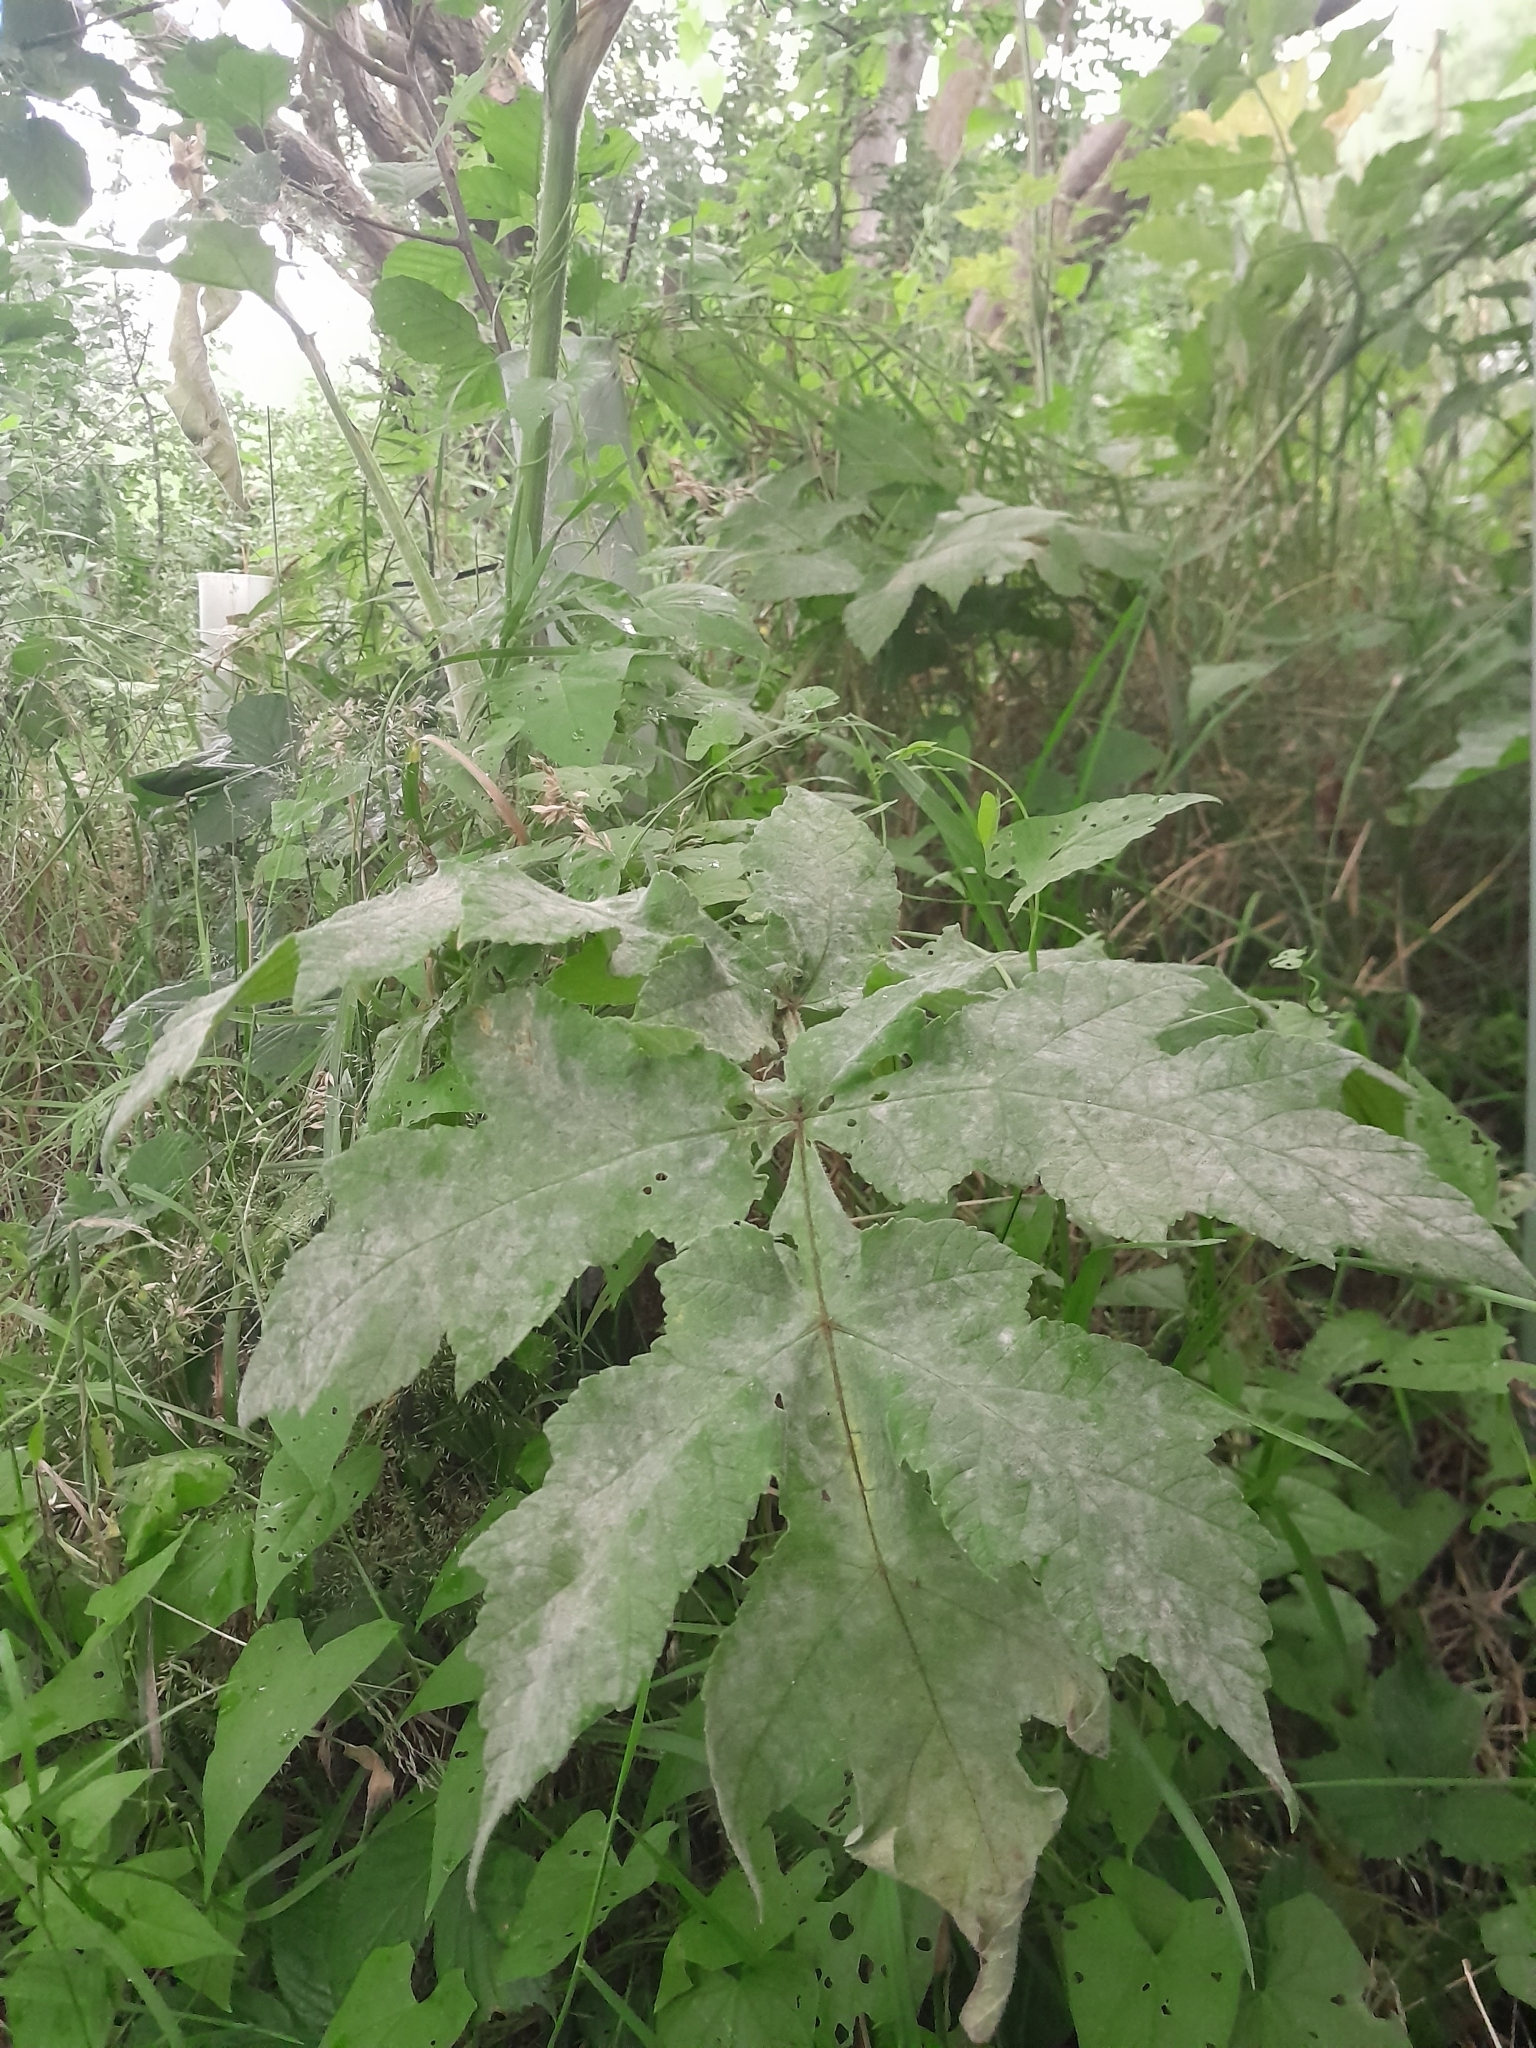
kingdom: Plantae
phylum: Tracheophyta
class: Magnoliopsida
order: Apiales
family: Apiaceae
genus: Heracleum
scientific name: Heracleum sphondylium
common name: Hogweed
